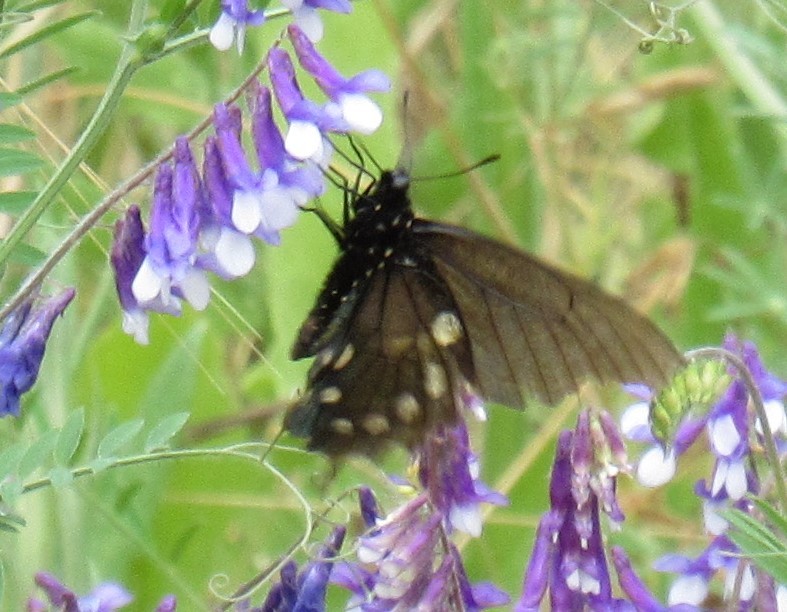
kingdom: Animalia
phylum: Arthropoda
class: Insecta
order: Lepidoptera
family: Papilionidae
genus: Battus
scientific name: Battus philenor
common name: Pipevine swallowtail
